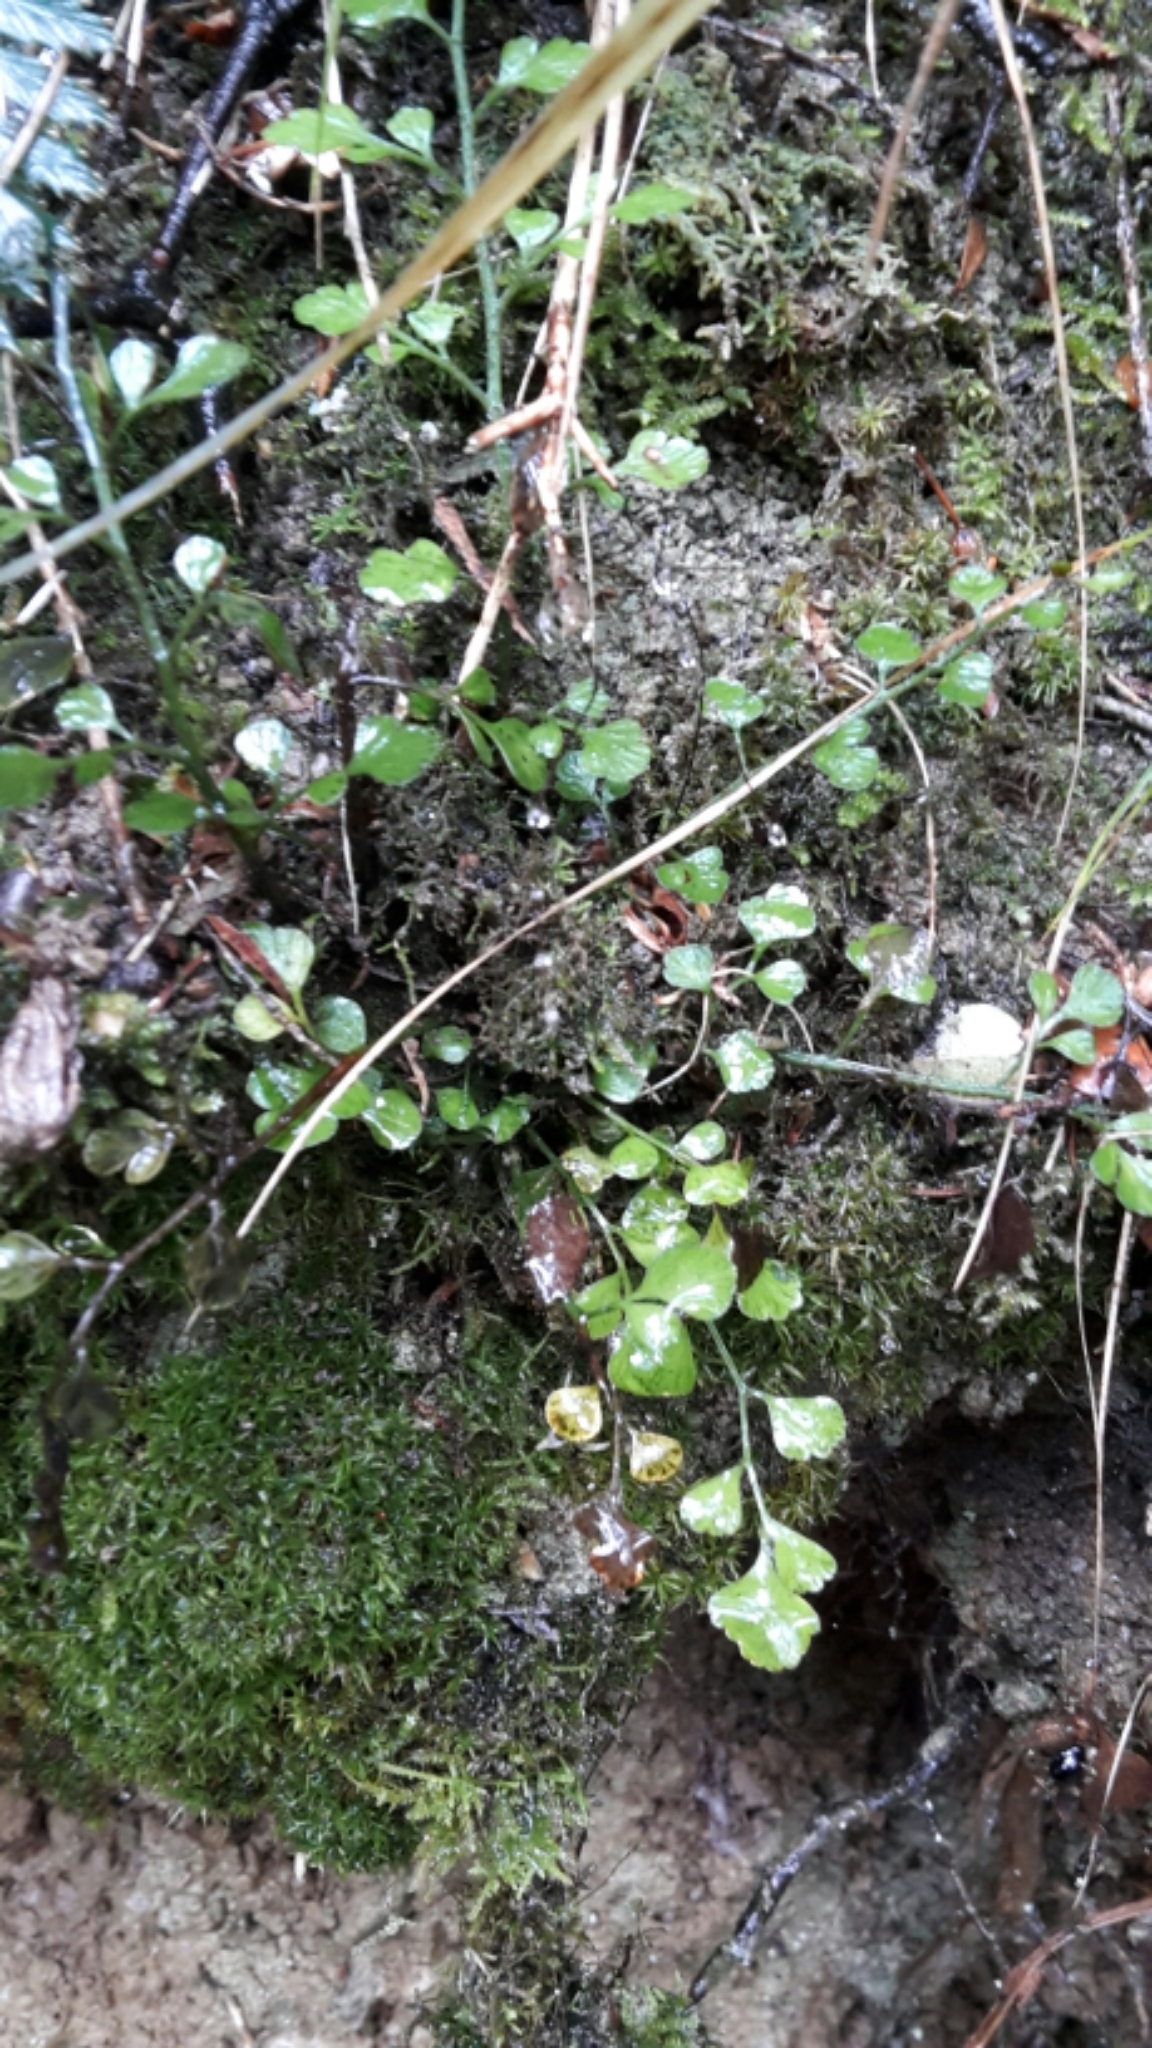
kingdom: Plantae
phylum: Tracheophyta
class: Polypodiopsida
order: Polypodiales
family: Aspleniaceae
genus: Asplenium
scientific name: Asplenium hookerianum
